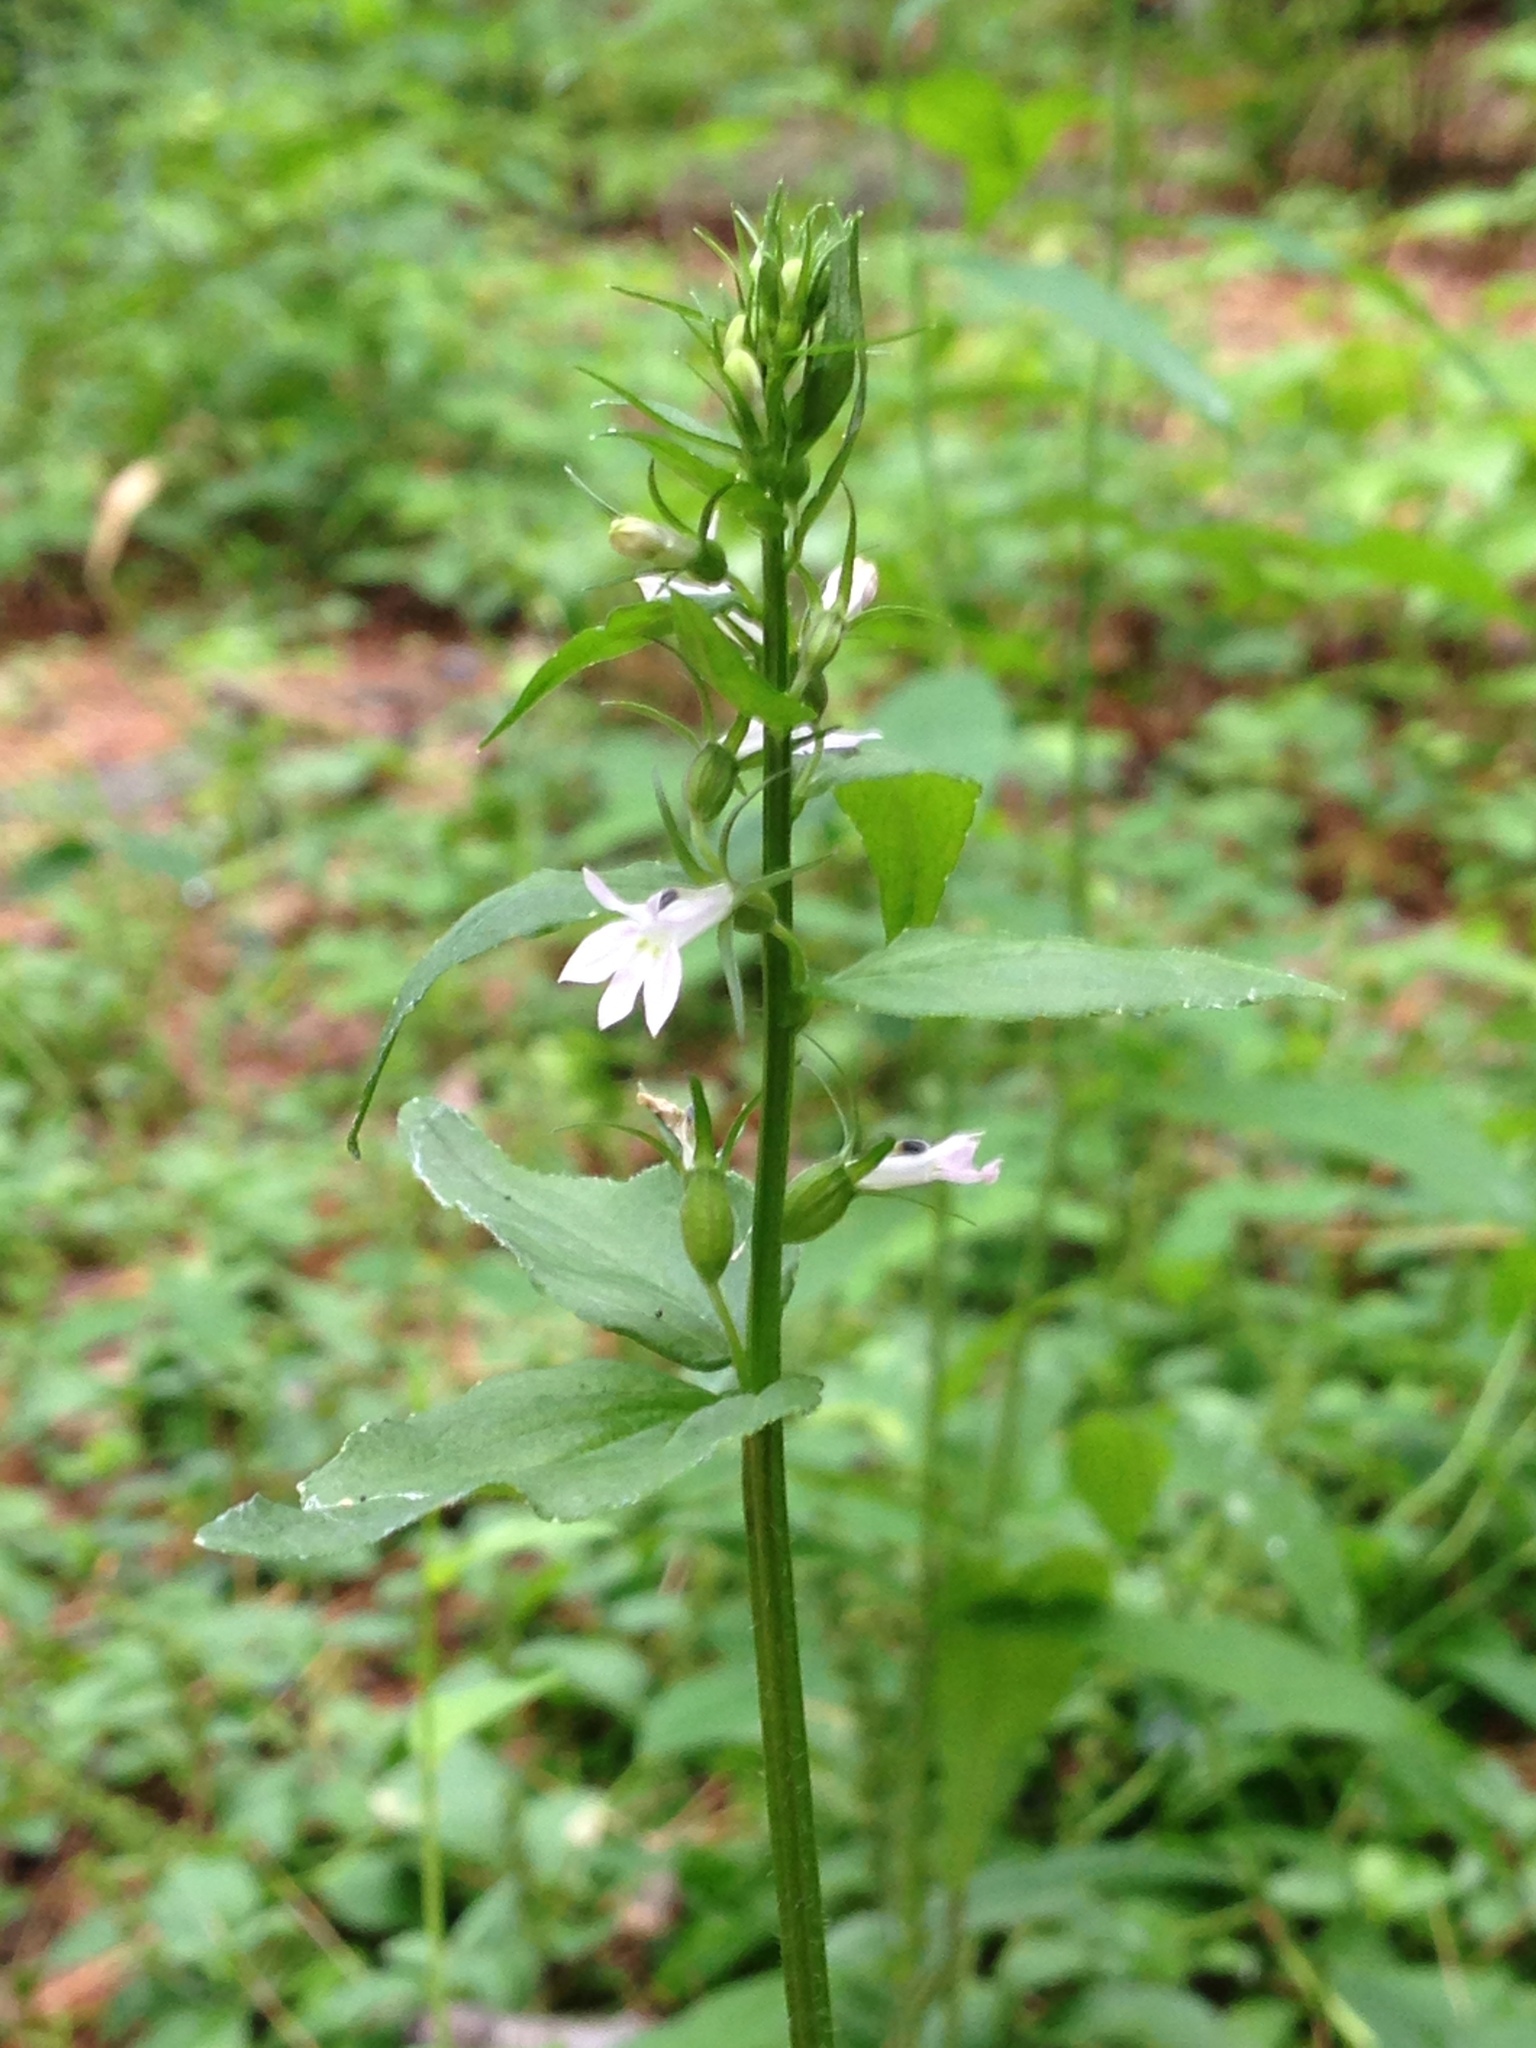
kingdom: Plantae
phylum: Tracheophyta
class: Magnoliopsida
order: Asterales
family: Campanulaceae
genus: Lobelia
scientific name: Lobelia inflata
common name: Indian tobacco
